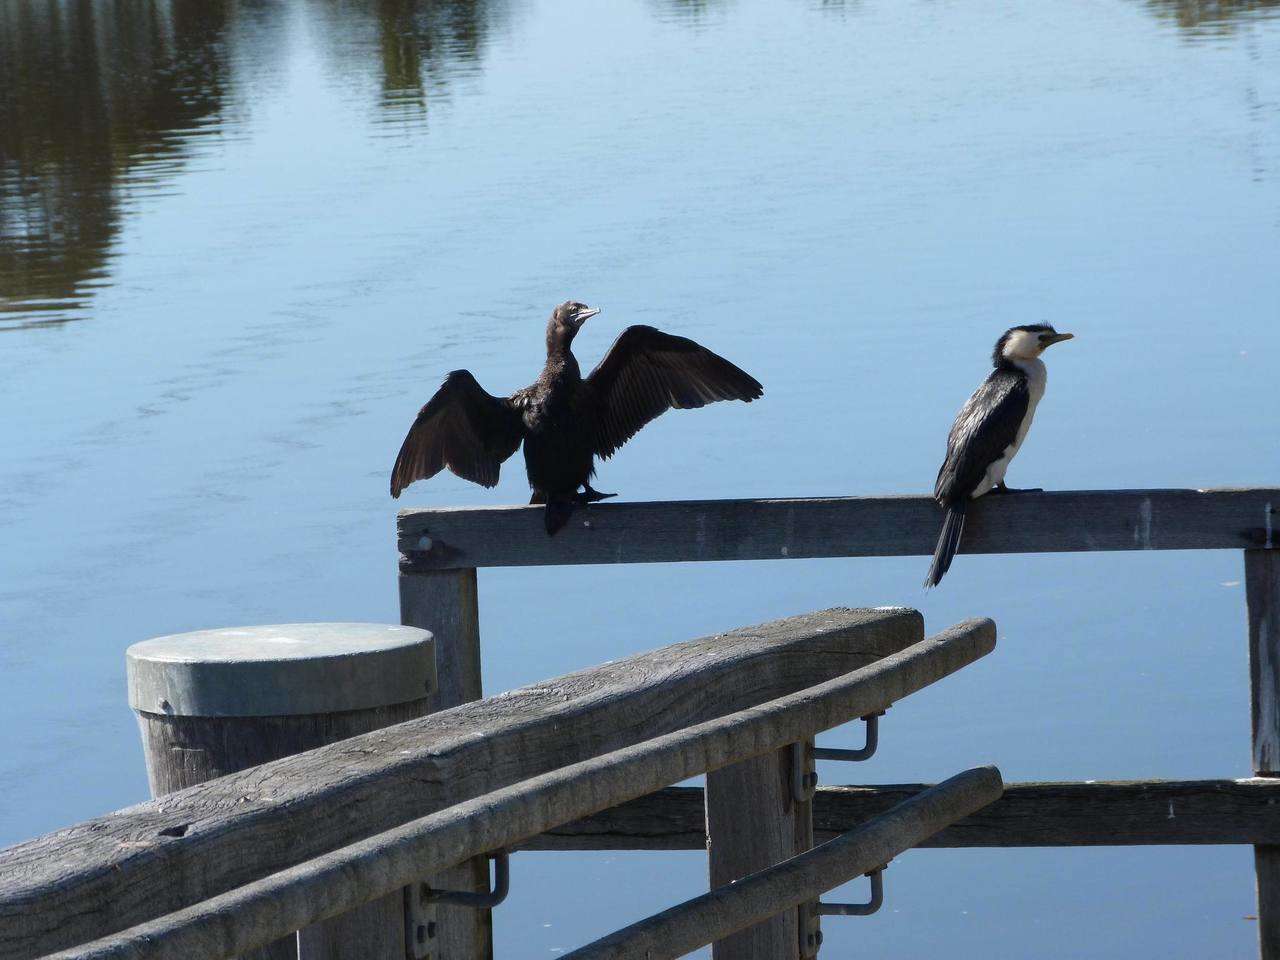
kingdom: Animalia
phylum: Chordata
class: Aves
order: Suliformes
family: Phalacrocoracidae
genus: Phalacrocorax
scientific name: Phalacrocorax sulcirostris
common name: Little black cormorant
